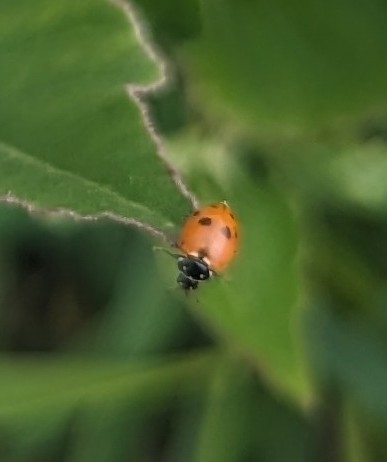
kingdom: Animalia
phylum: Arthropoda
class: Insecta
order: Coleoptera
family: Coccinellidae
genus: Hippodamia
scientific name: Hippodamia variegata
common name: Ladybird beetle
